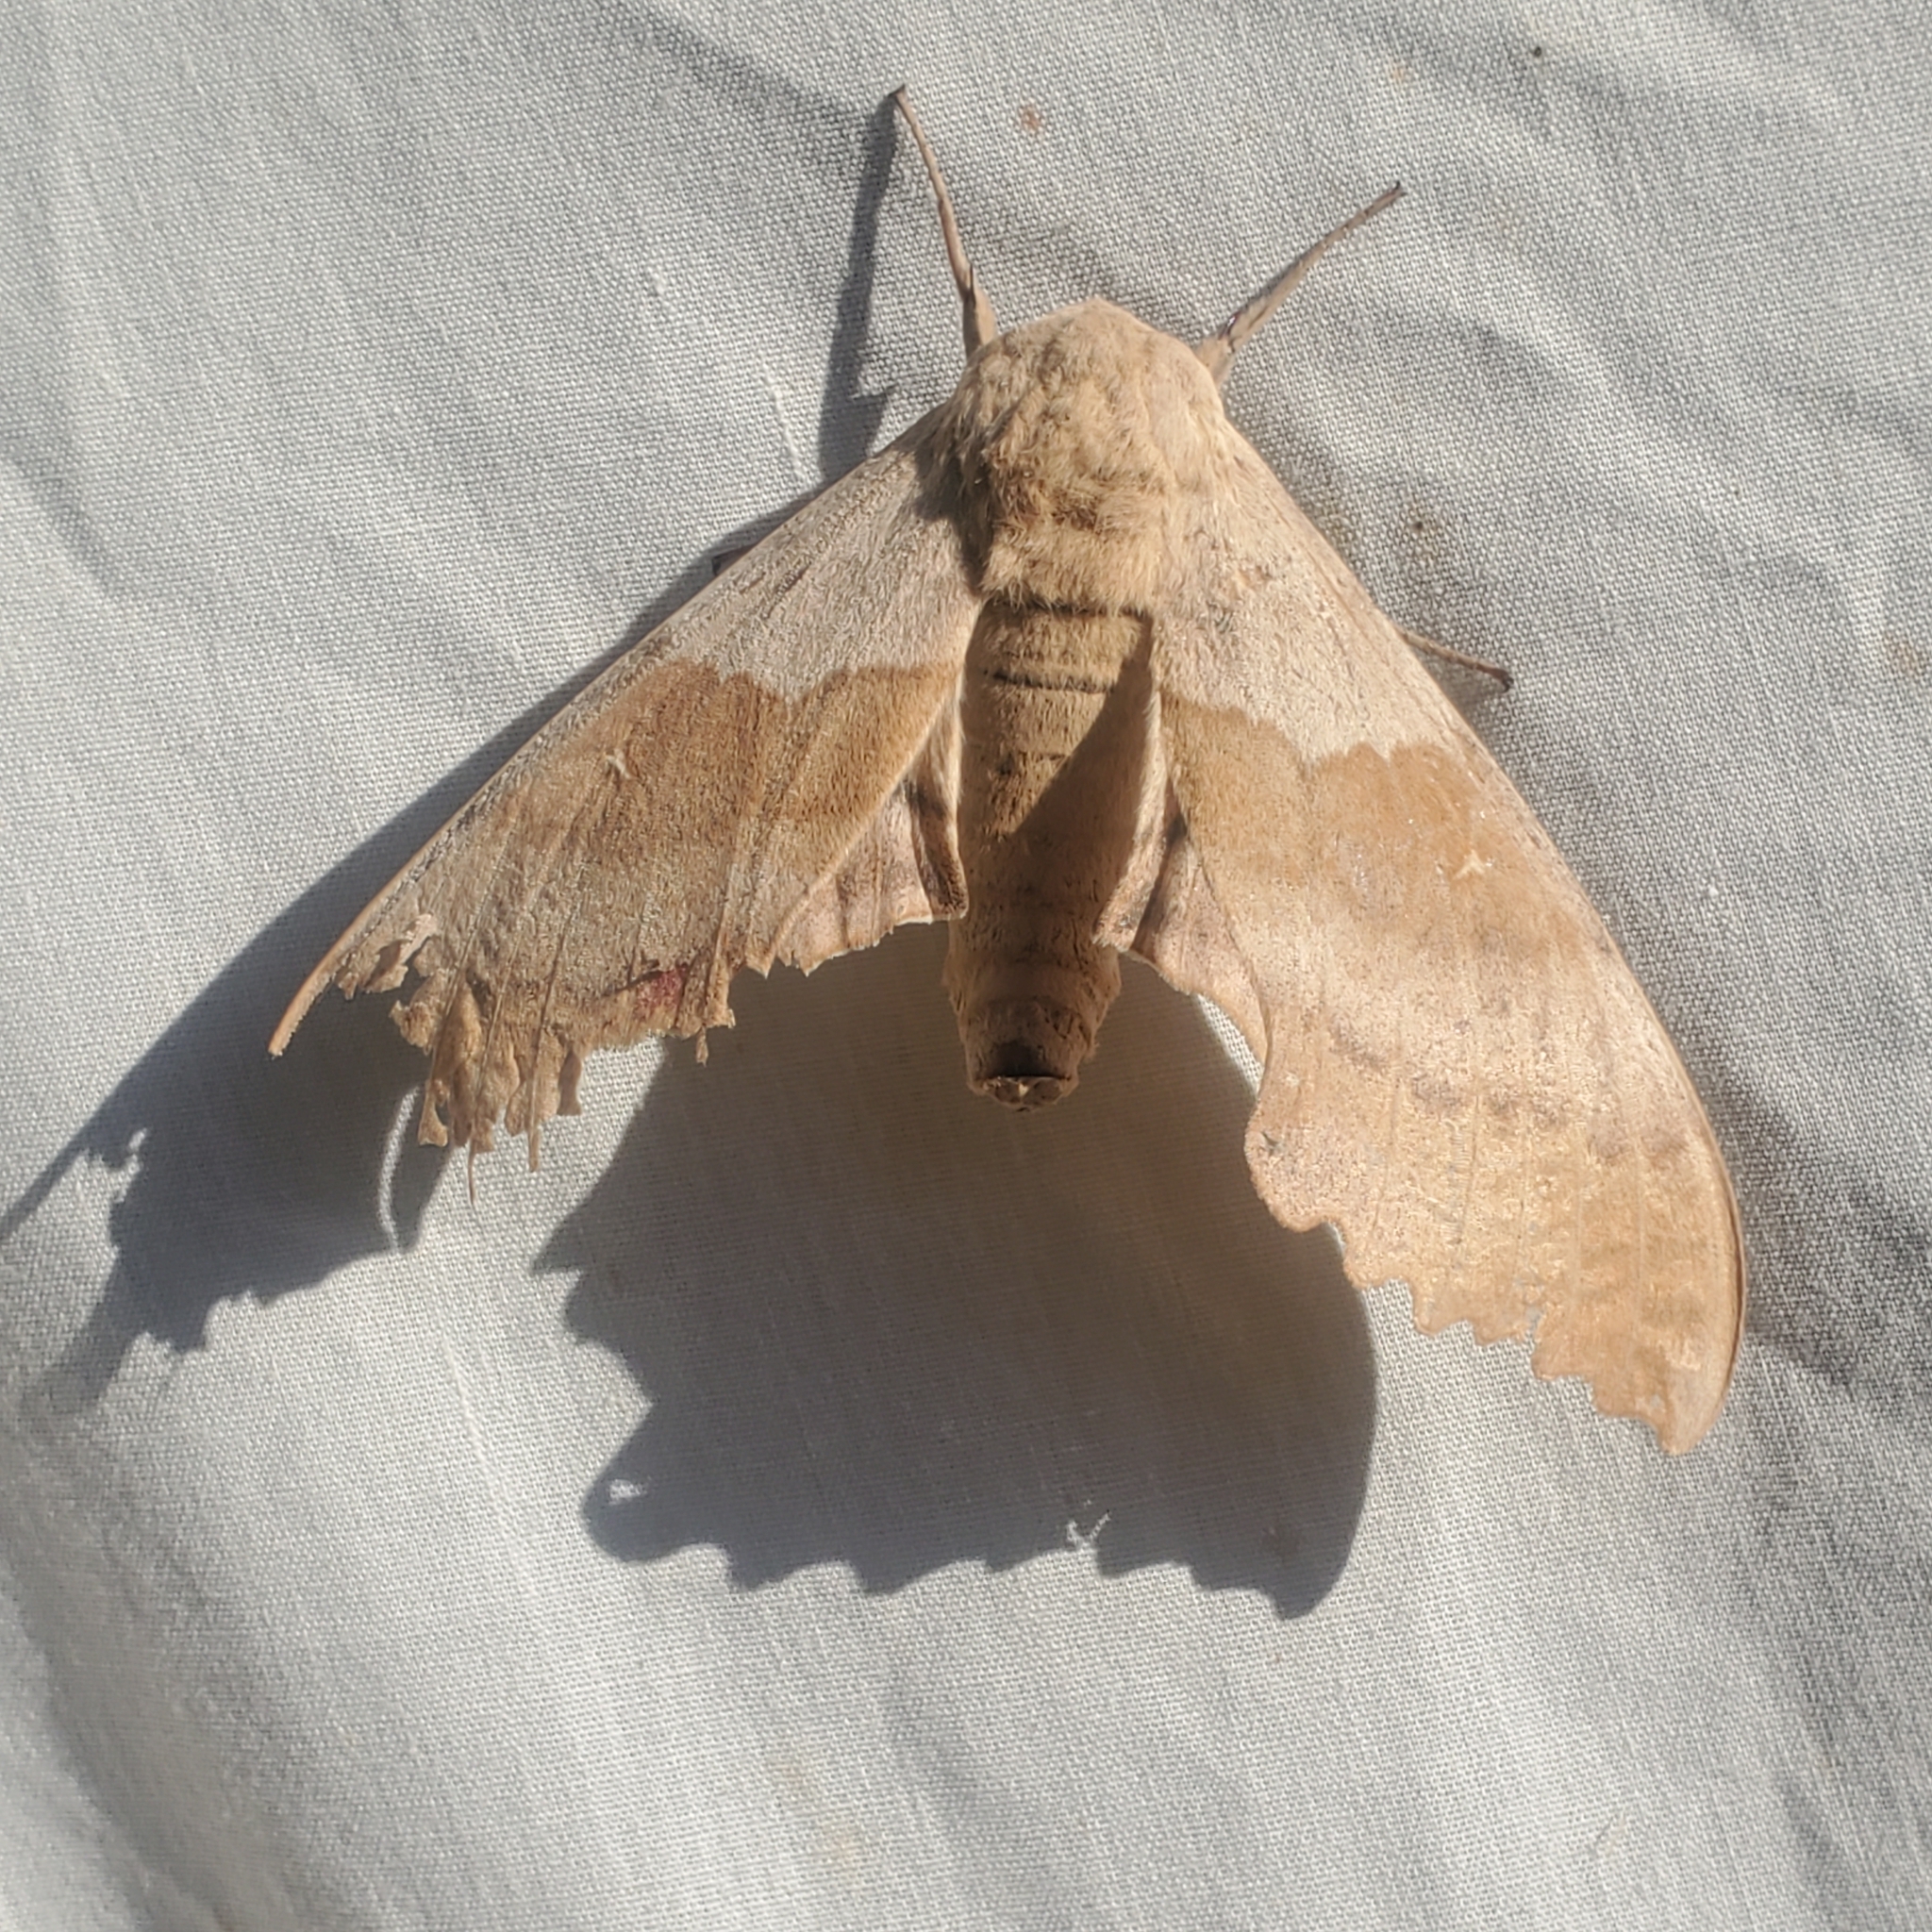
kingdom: Animalia
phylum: Arthropoda
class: Insecta
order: Lepidoptera
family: Sphingidae
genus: Pachysphinx
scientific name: Pachysphinx occidentalis
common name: Western poplar sphinx
